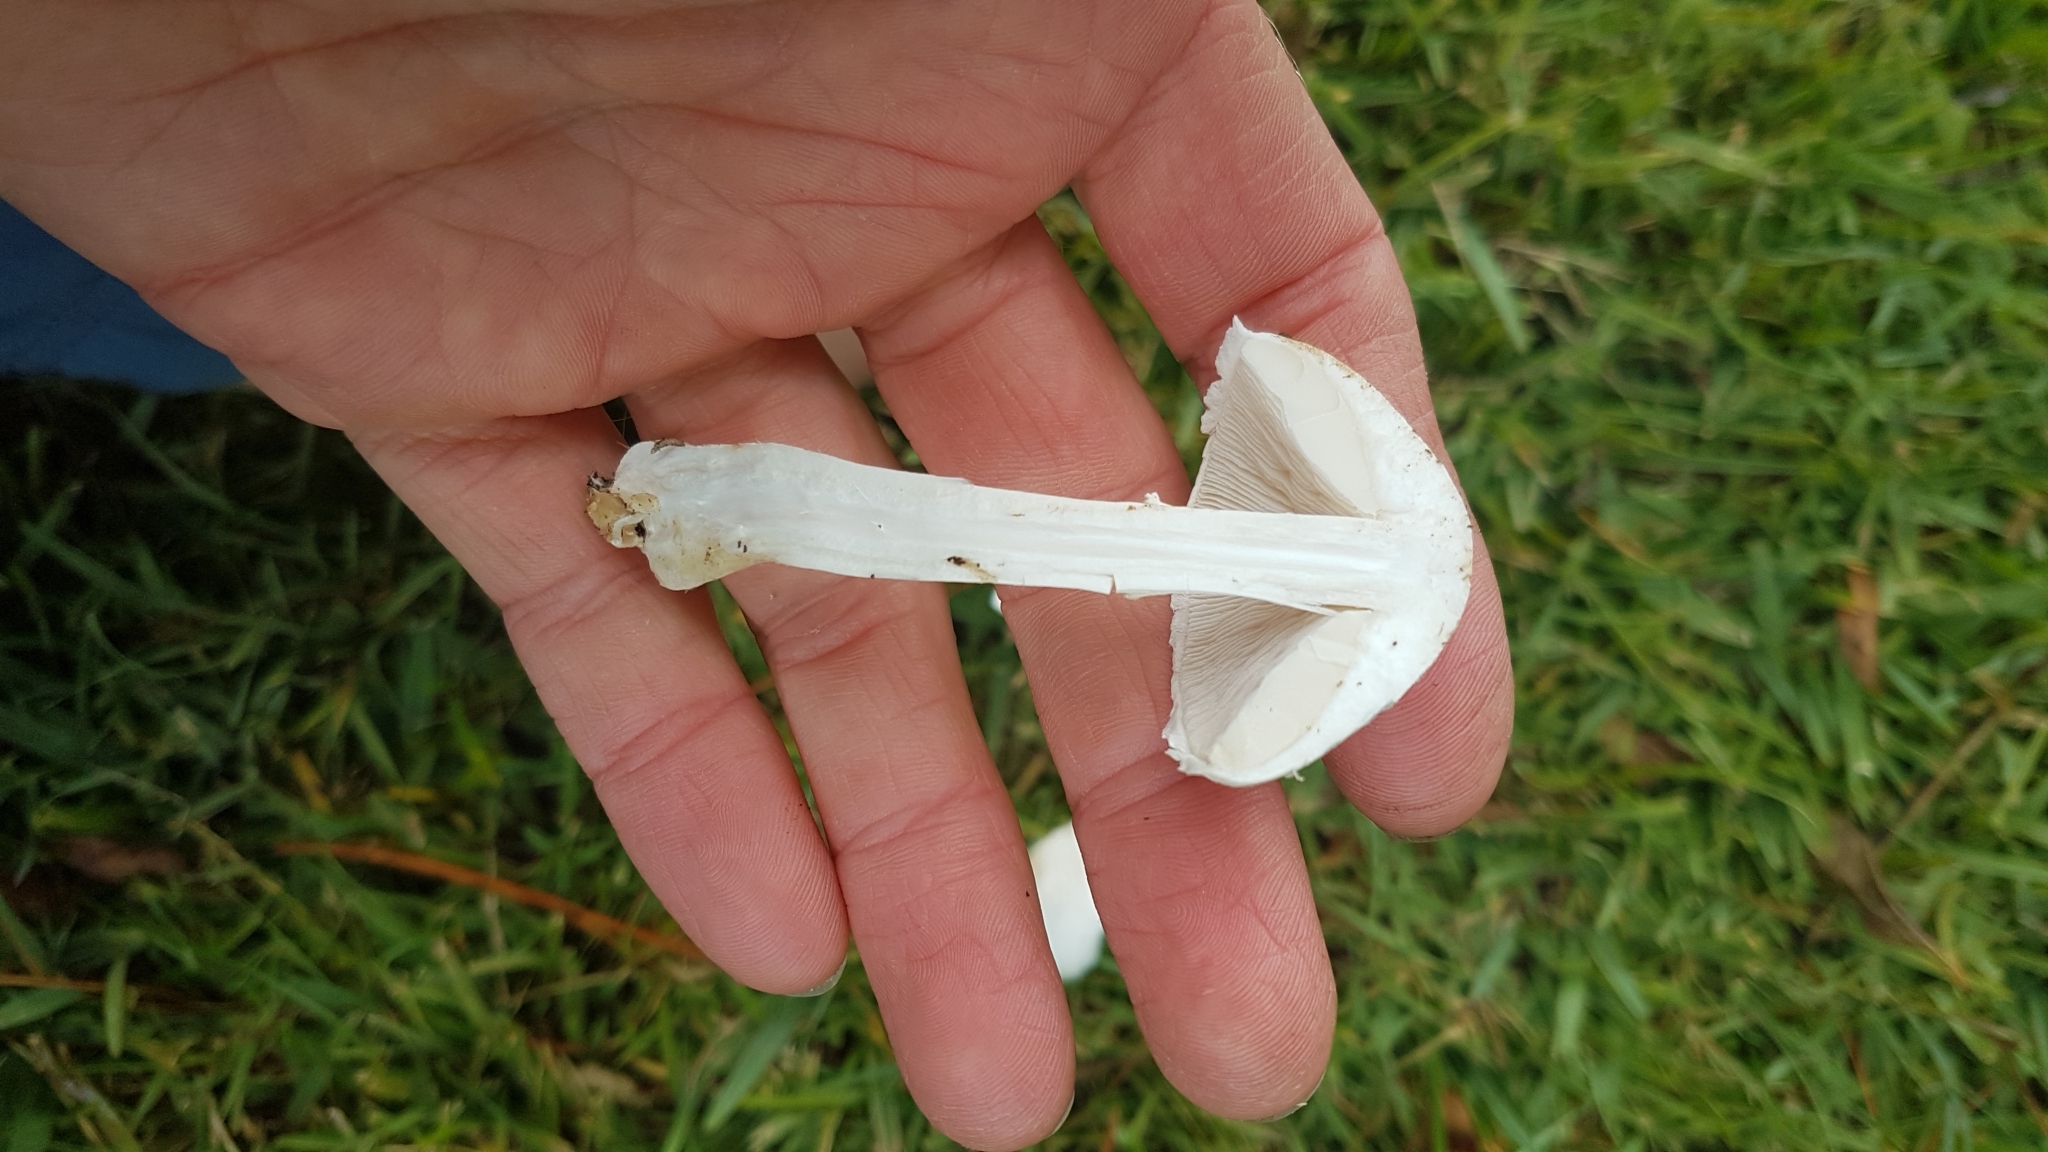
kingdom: Fungi
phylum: Basidiomycota
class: Agaricomycetes
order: Agaricales
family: Agaricaceae
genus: Leucoagaricus
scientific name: Leucoagaricus leucothites
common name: White dapperling
